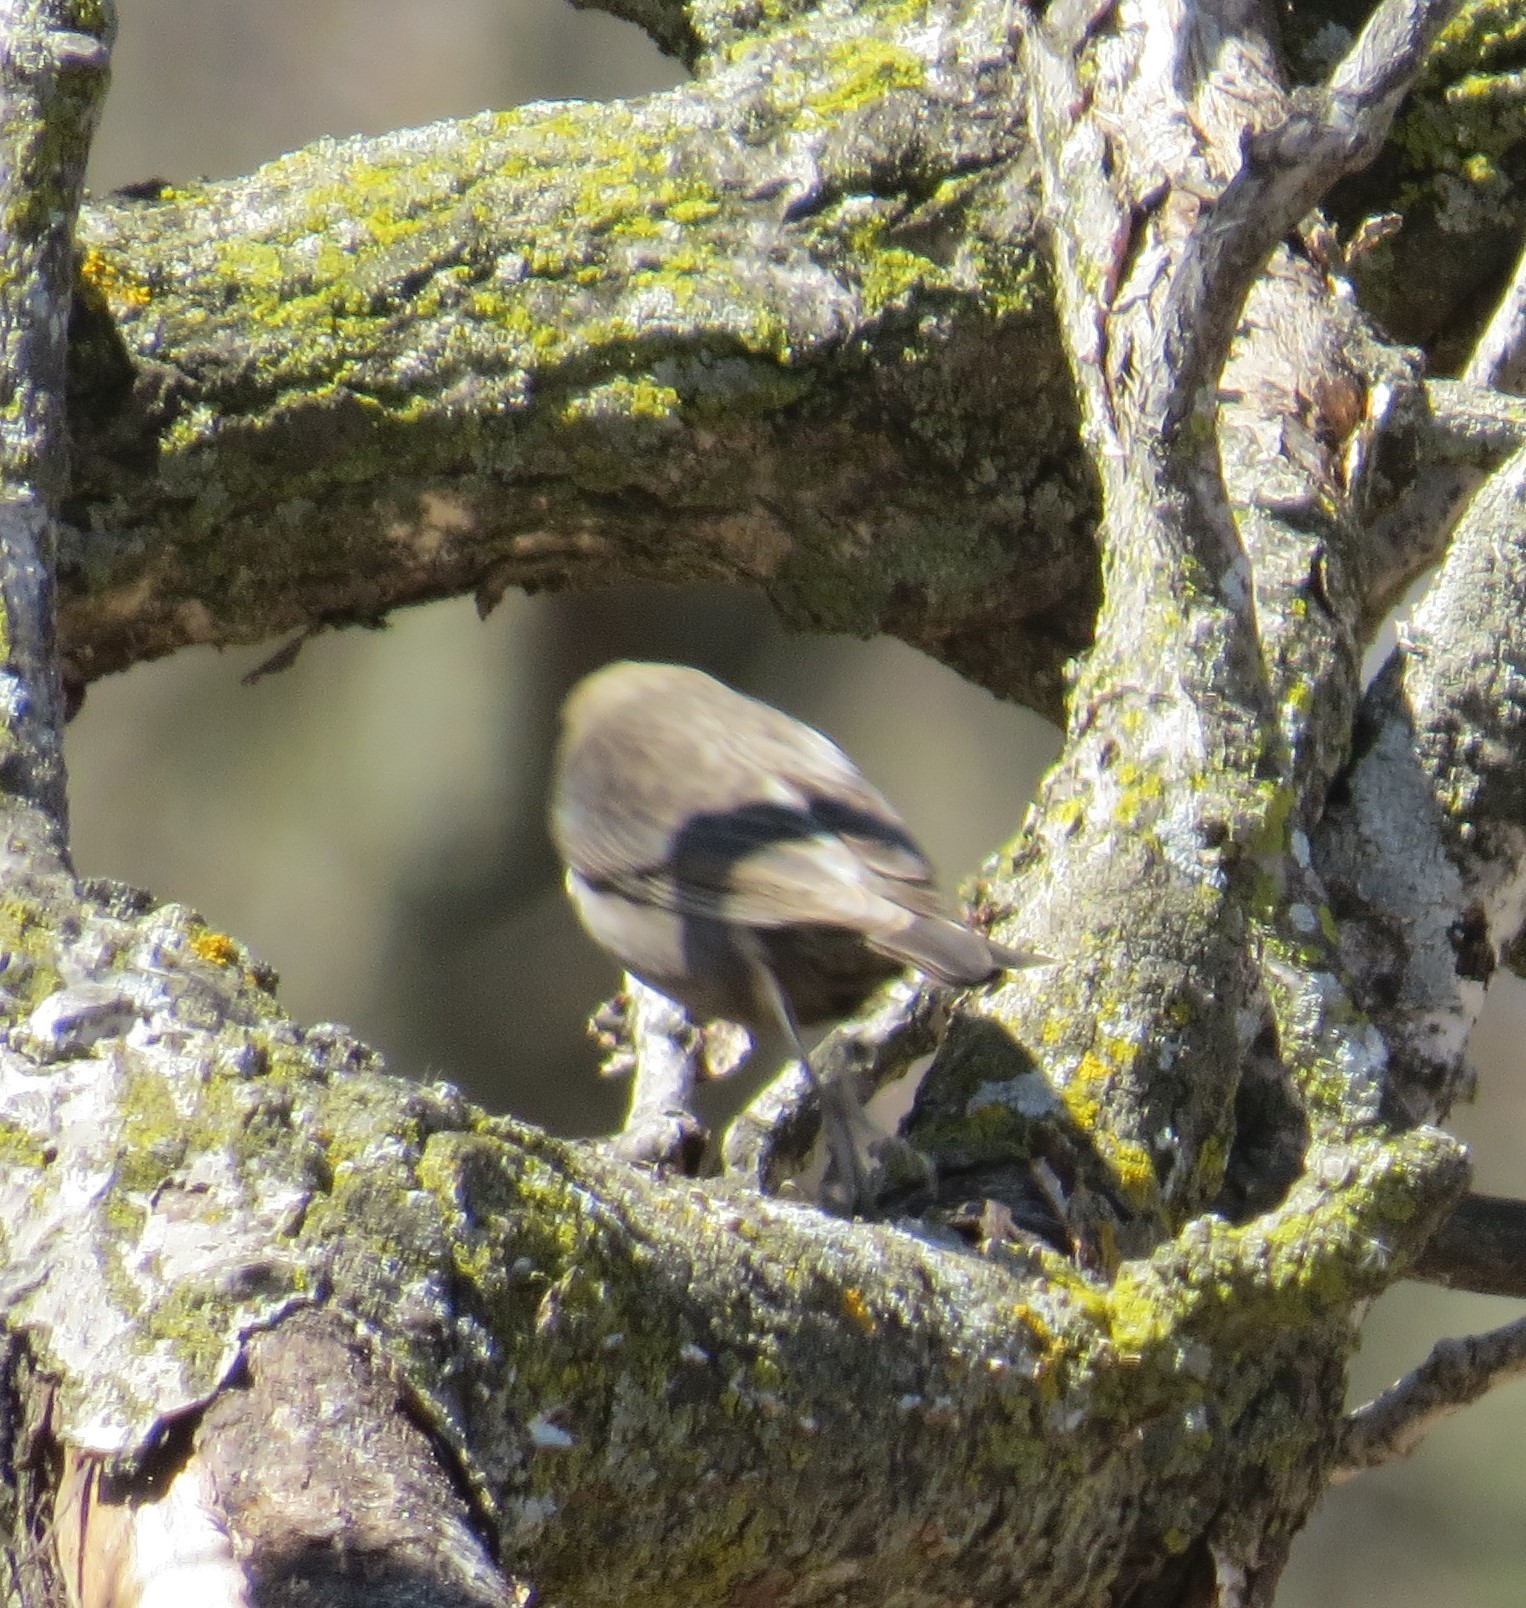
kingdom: Animalia
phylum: Chordata
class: Aves
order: Passeriformes
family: Icteridae
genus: Molothrus
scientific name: Molothrus ater
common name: Brown-headed cowbird
